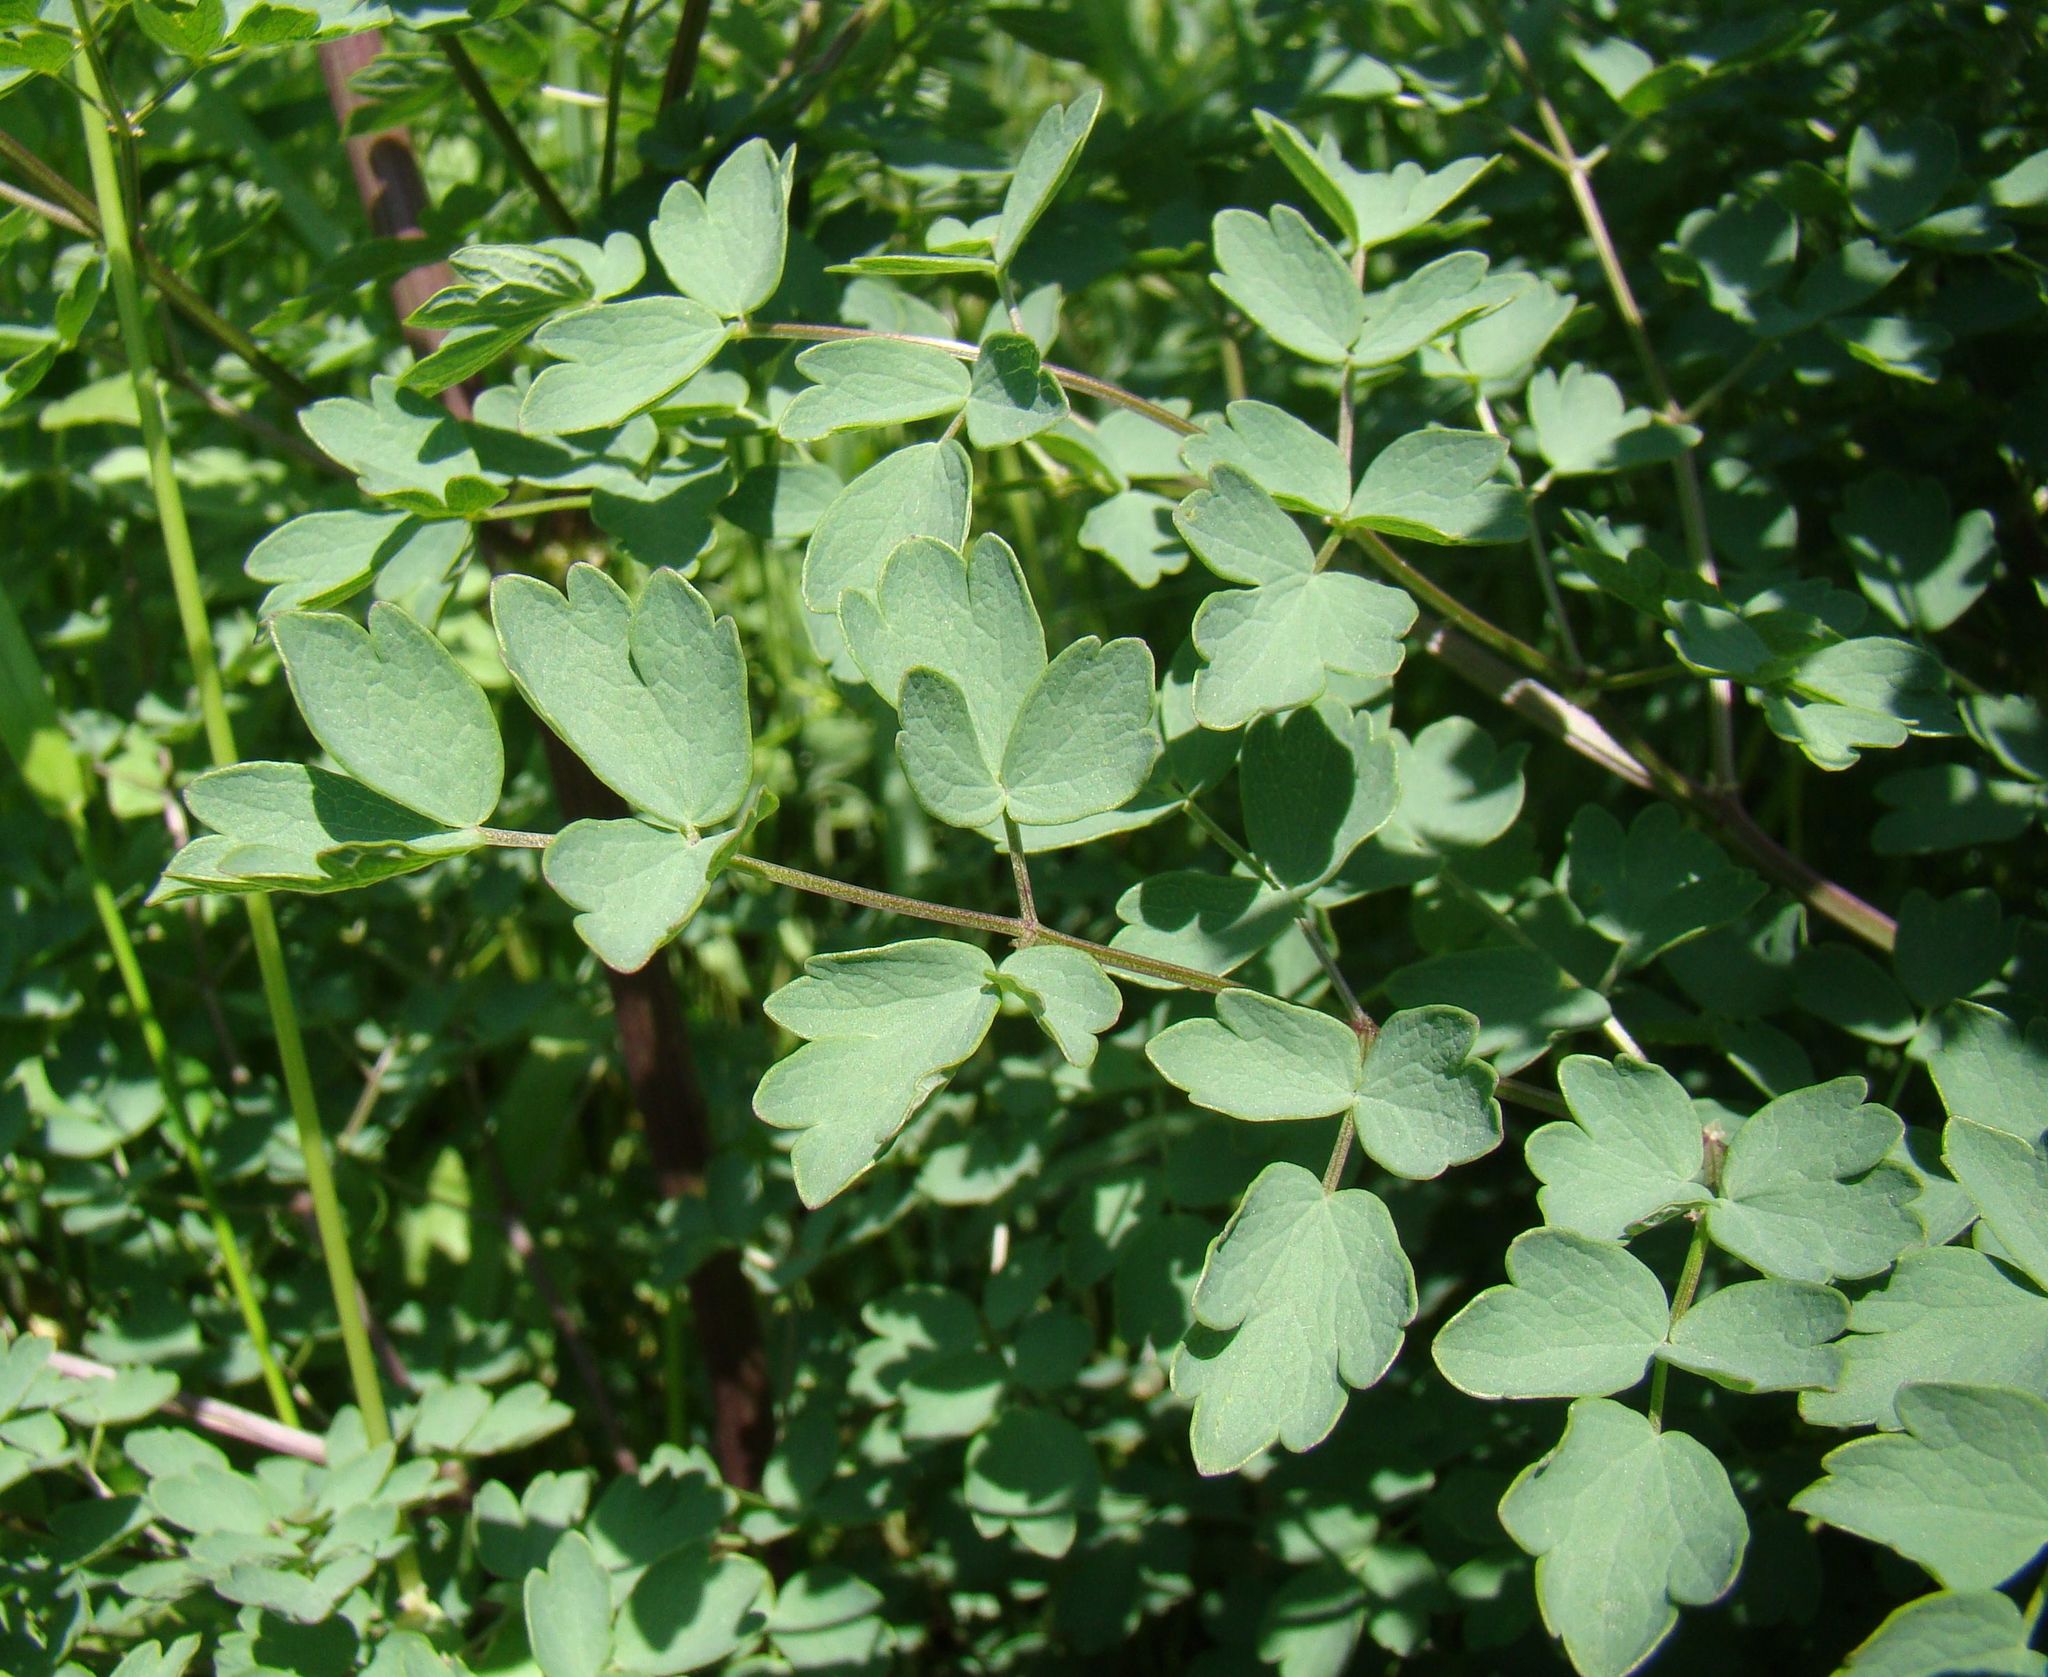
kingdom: Plantae
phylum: Tracheophyta
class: Magnoliopsida
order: Ranunculales
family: Ranunculaceae
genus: Thalictrum
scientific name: Thalictrum minus
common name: Lesser meadow-rue
